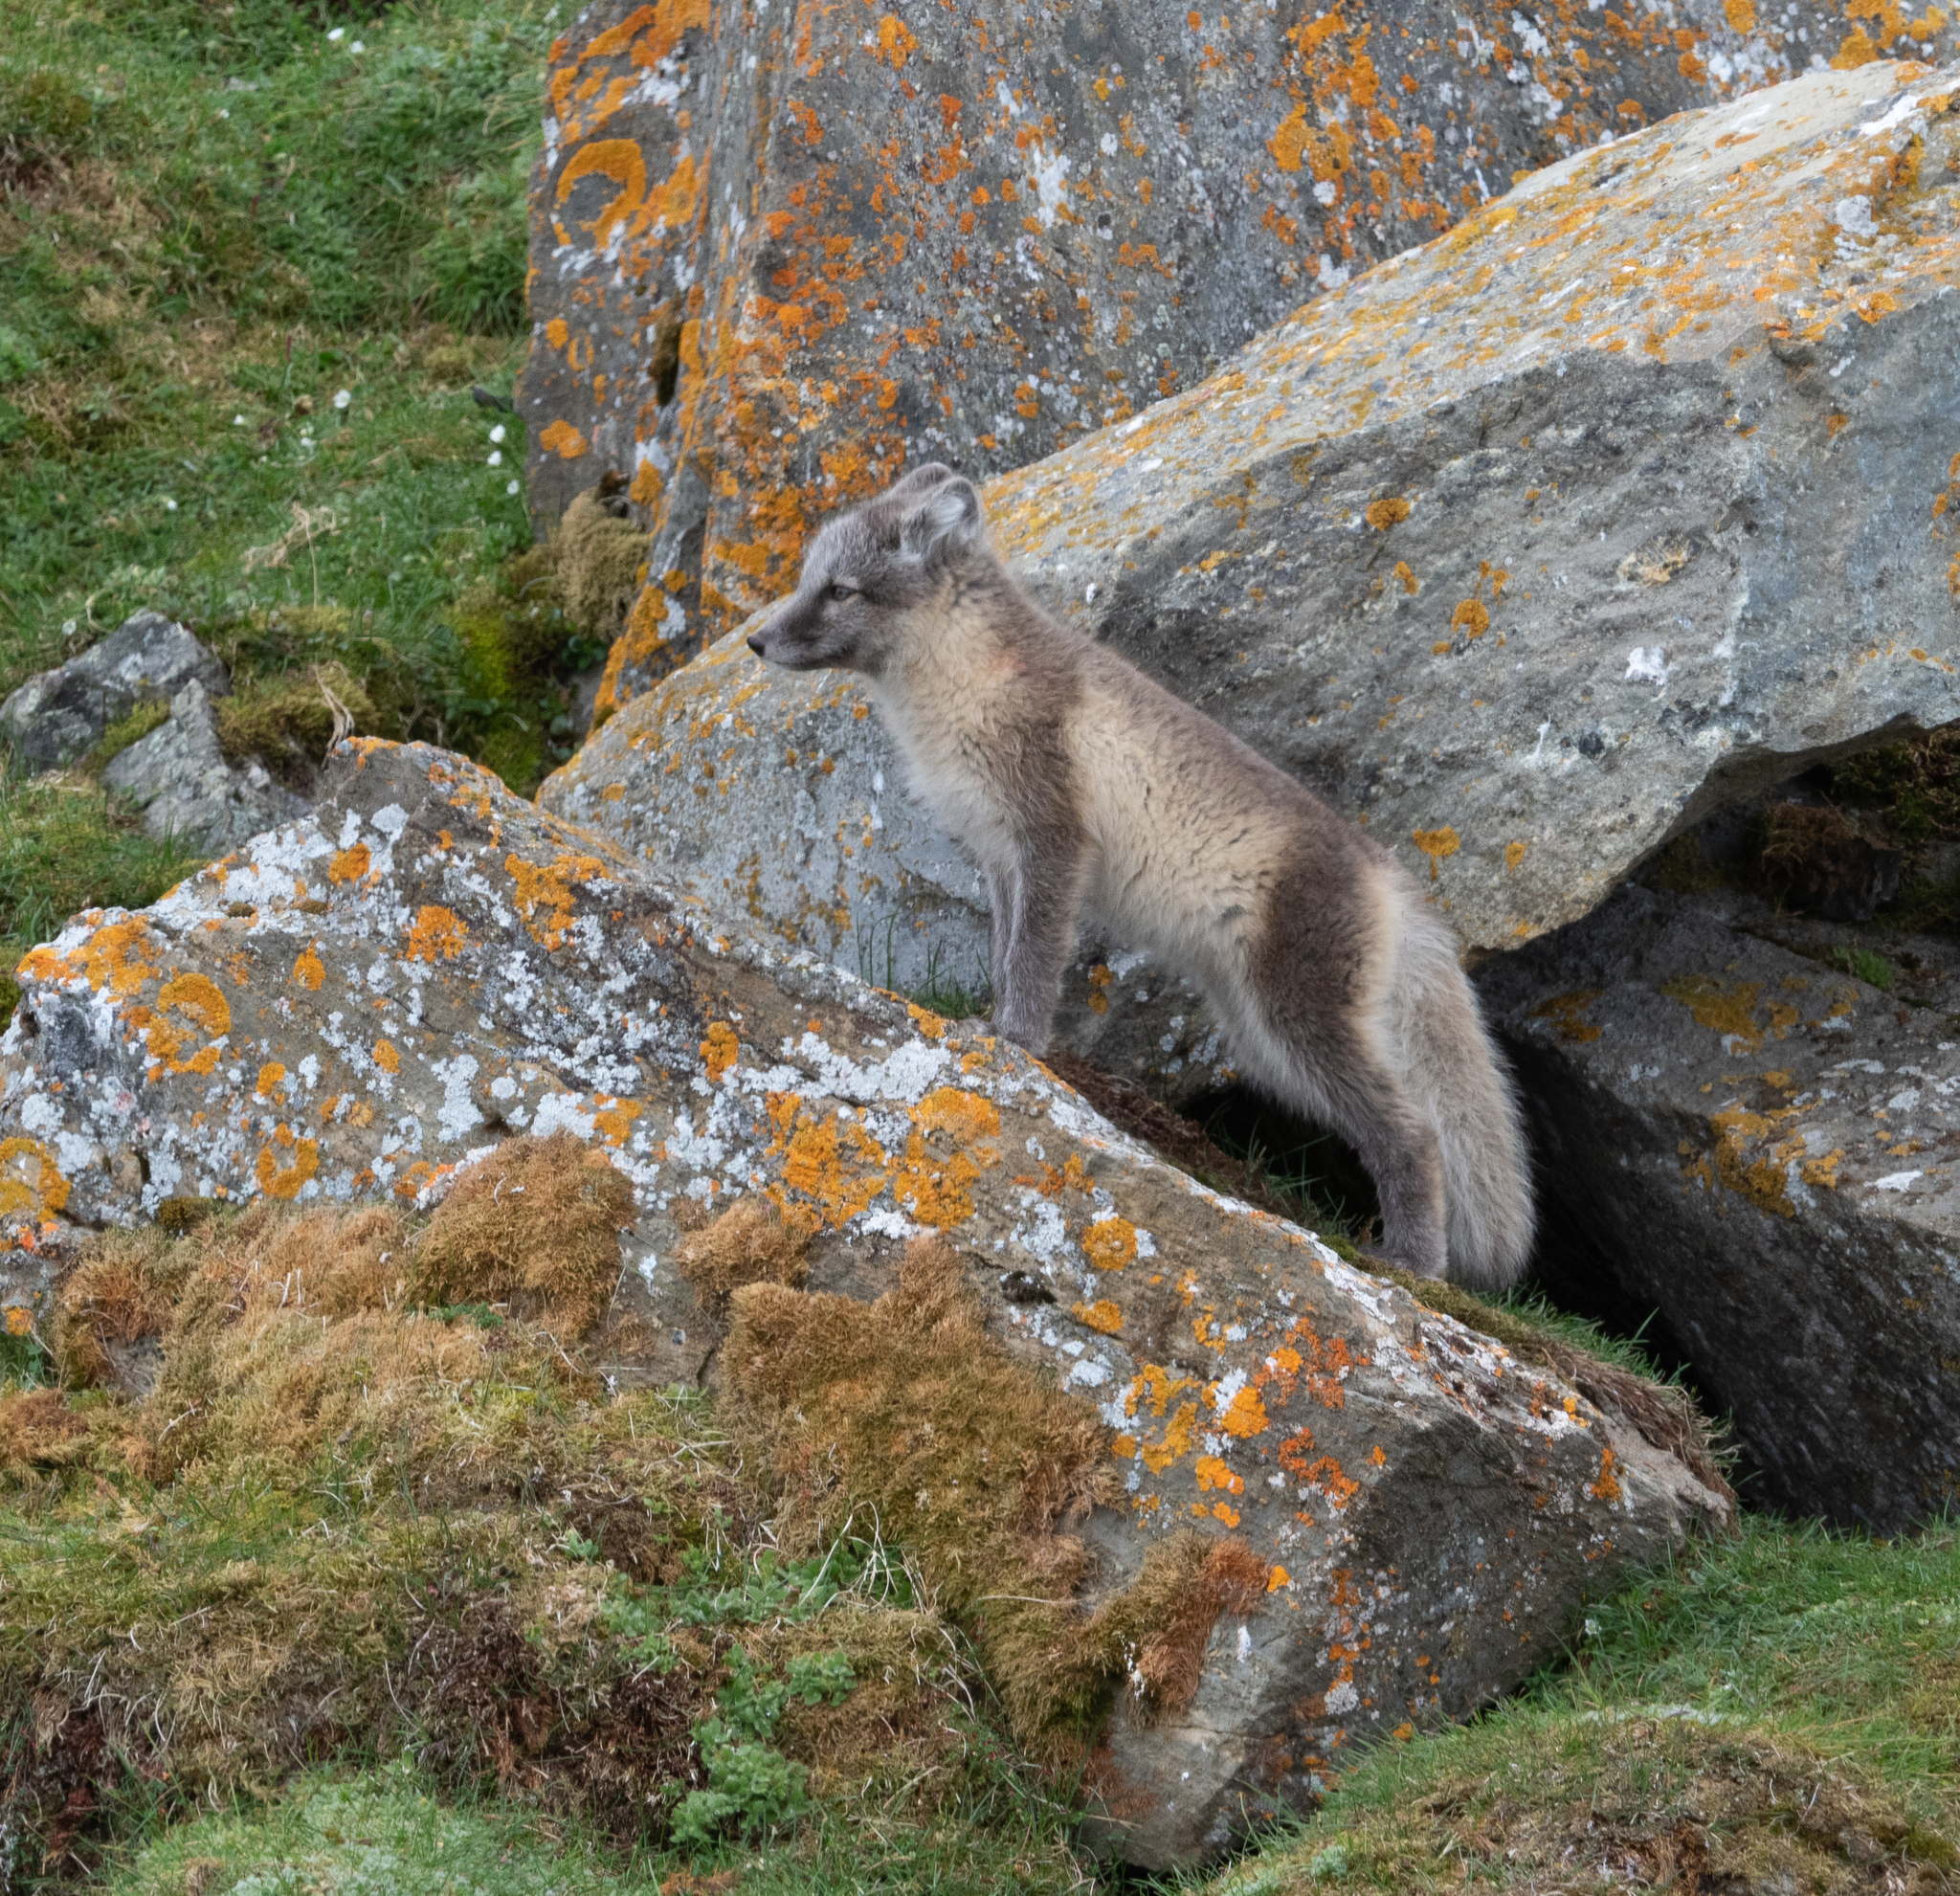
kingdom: Animalia
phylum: Chordata
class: Mammalia
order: Carnivora
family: Canidae
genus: Vulpes
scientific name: Vulpes lagopus
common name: Arctic fox
